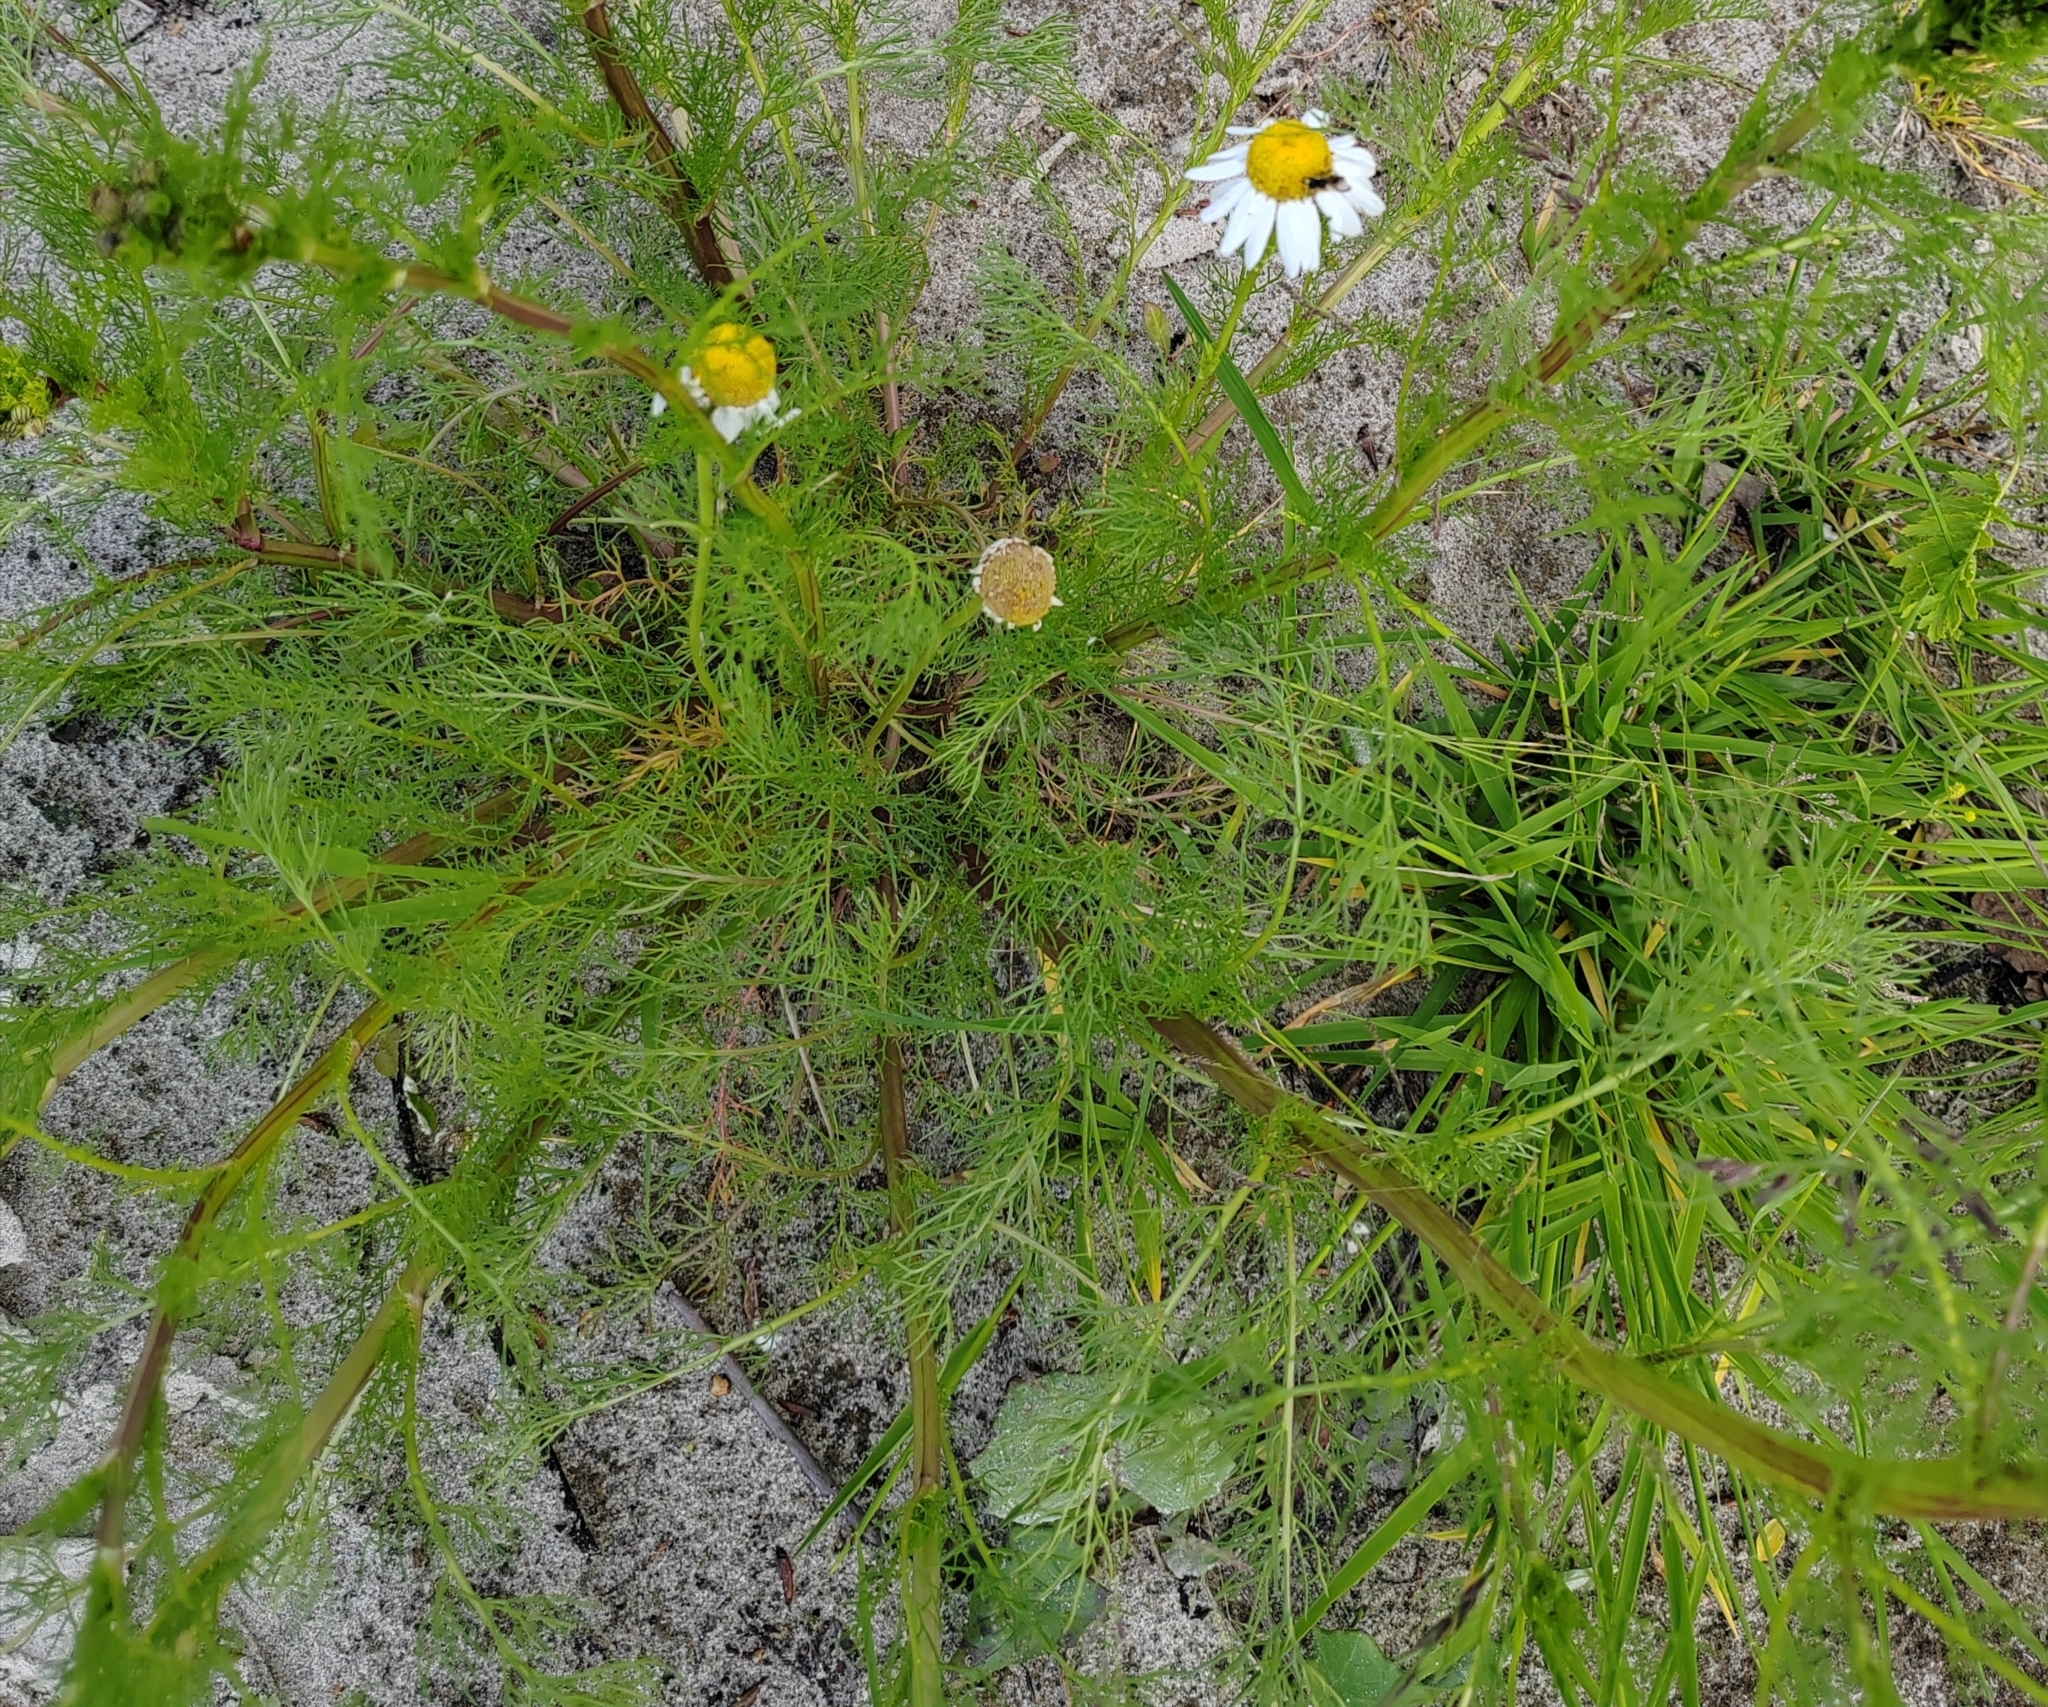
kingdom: Plantae
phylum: Tracheophyta
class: Magnoliopsida
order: Asterales
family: Asteraceae
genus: Tripleurospermum
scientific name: Tripleurospermum inodorum
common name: Scentless mayweed
